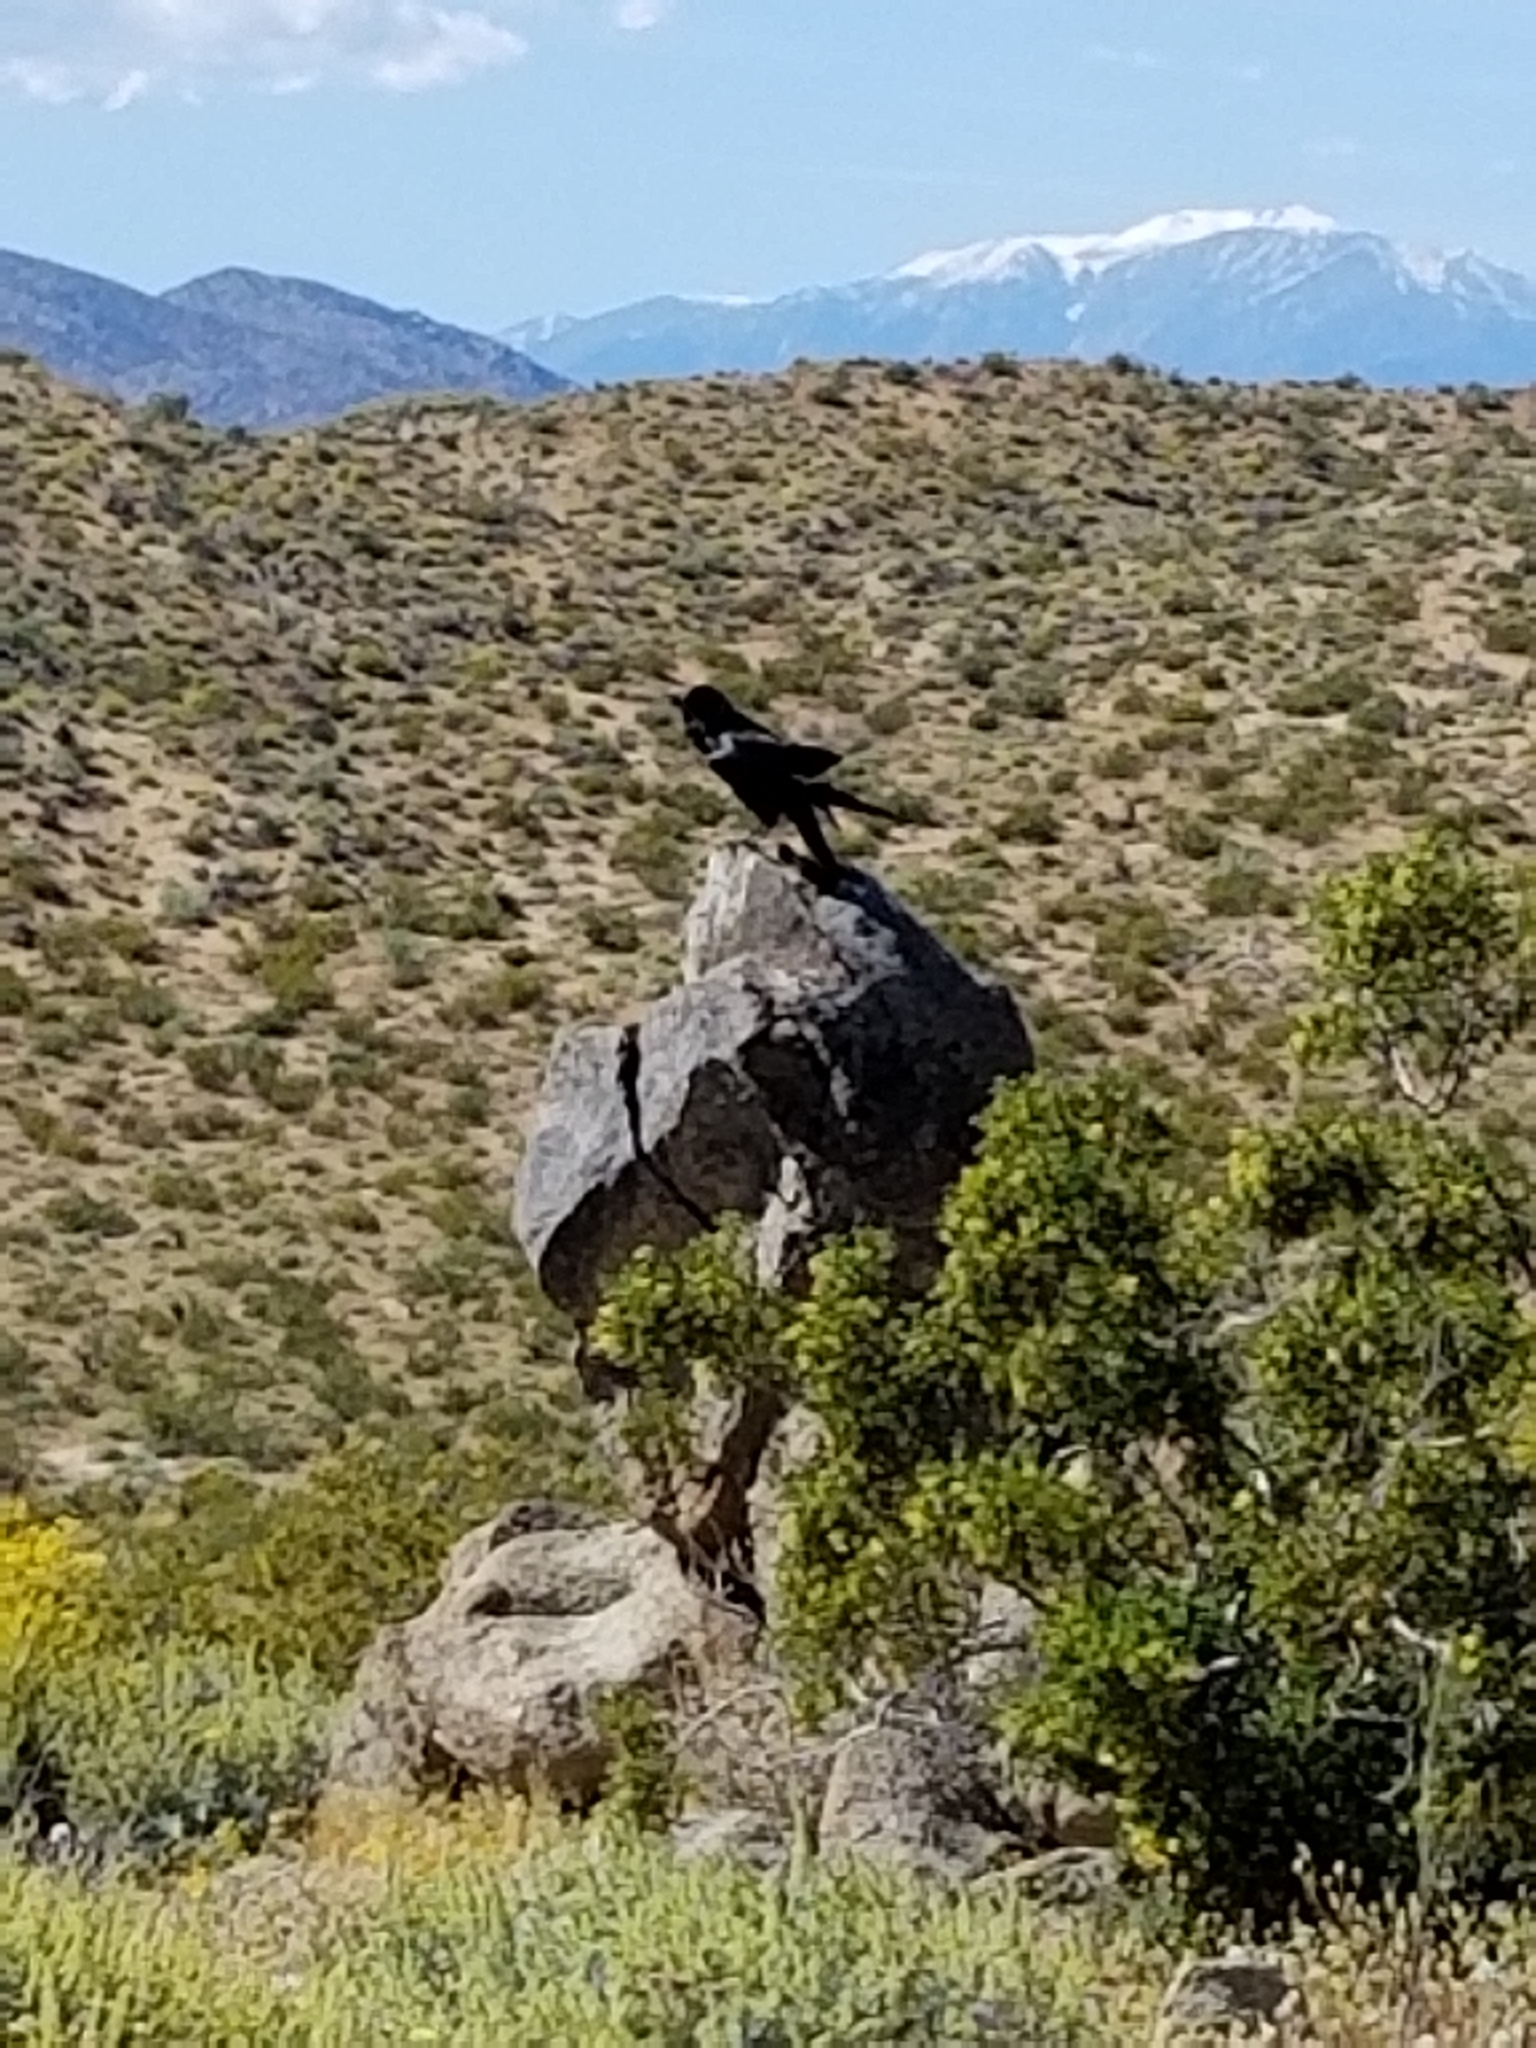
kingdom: Animalia
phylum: Chordata
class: Aves
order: Passeriformes
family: Corvidae
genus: Corvus
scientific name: Corvus corax
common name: Common raven
